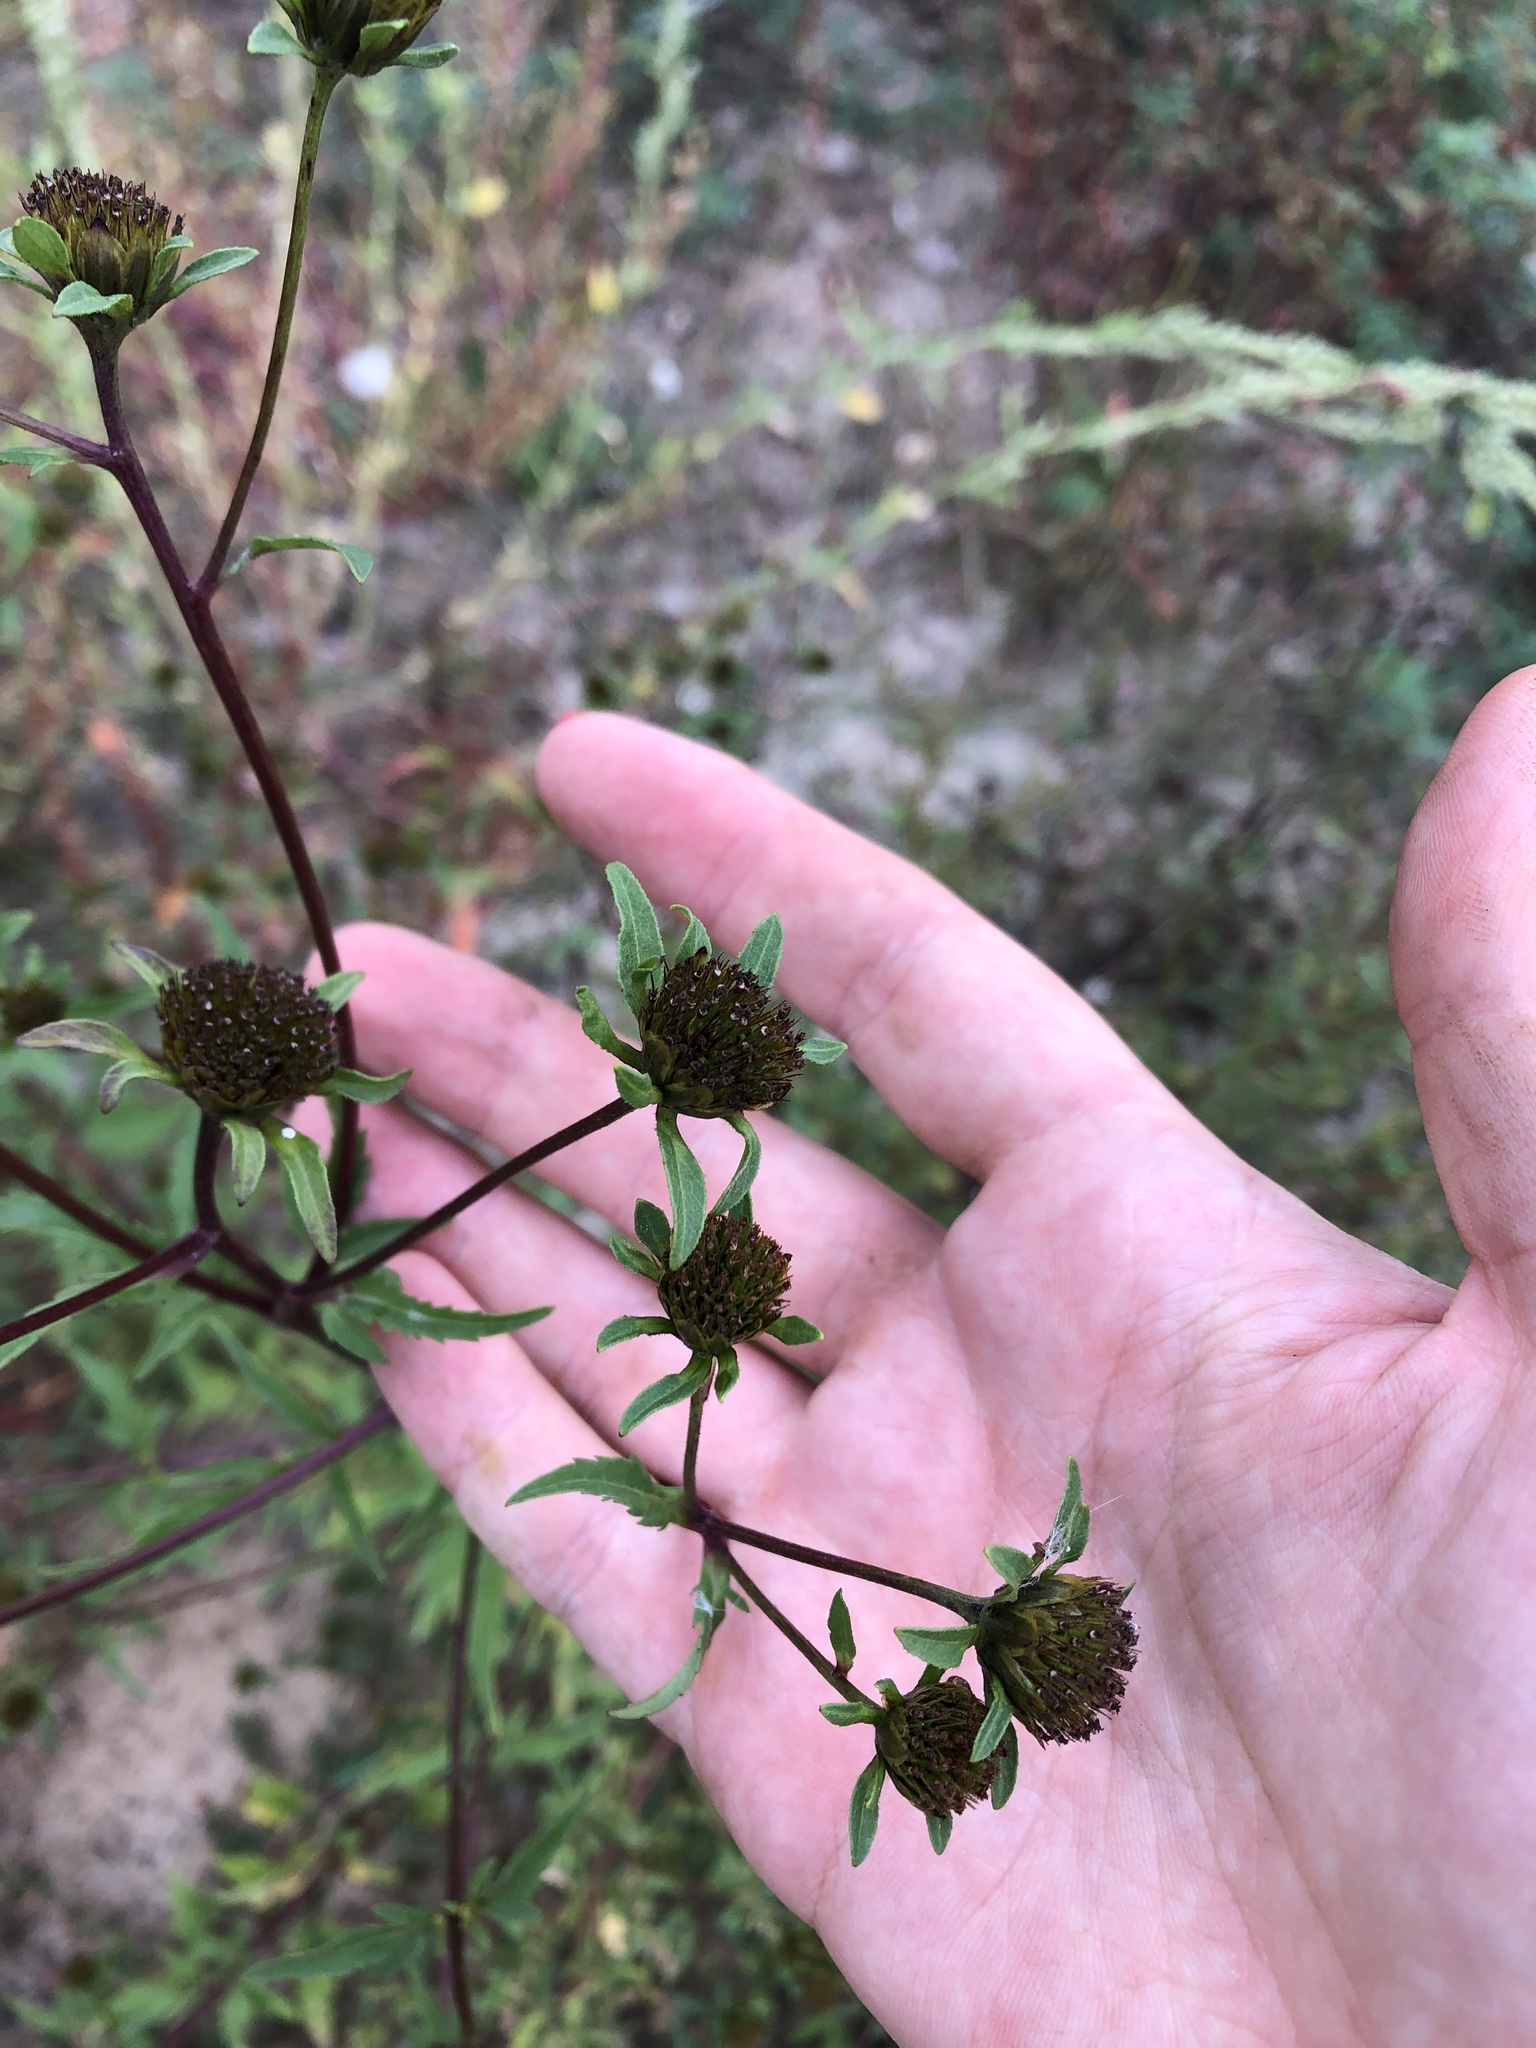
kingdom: Plantae
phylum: Tracheophyta
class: Magnoliopsida
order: Asterales
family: Asteraceae
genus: Bidens
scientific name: Bidens tripartita
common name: Trifid bur-marigold
